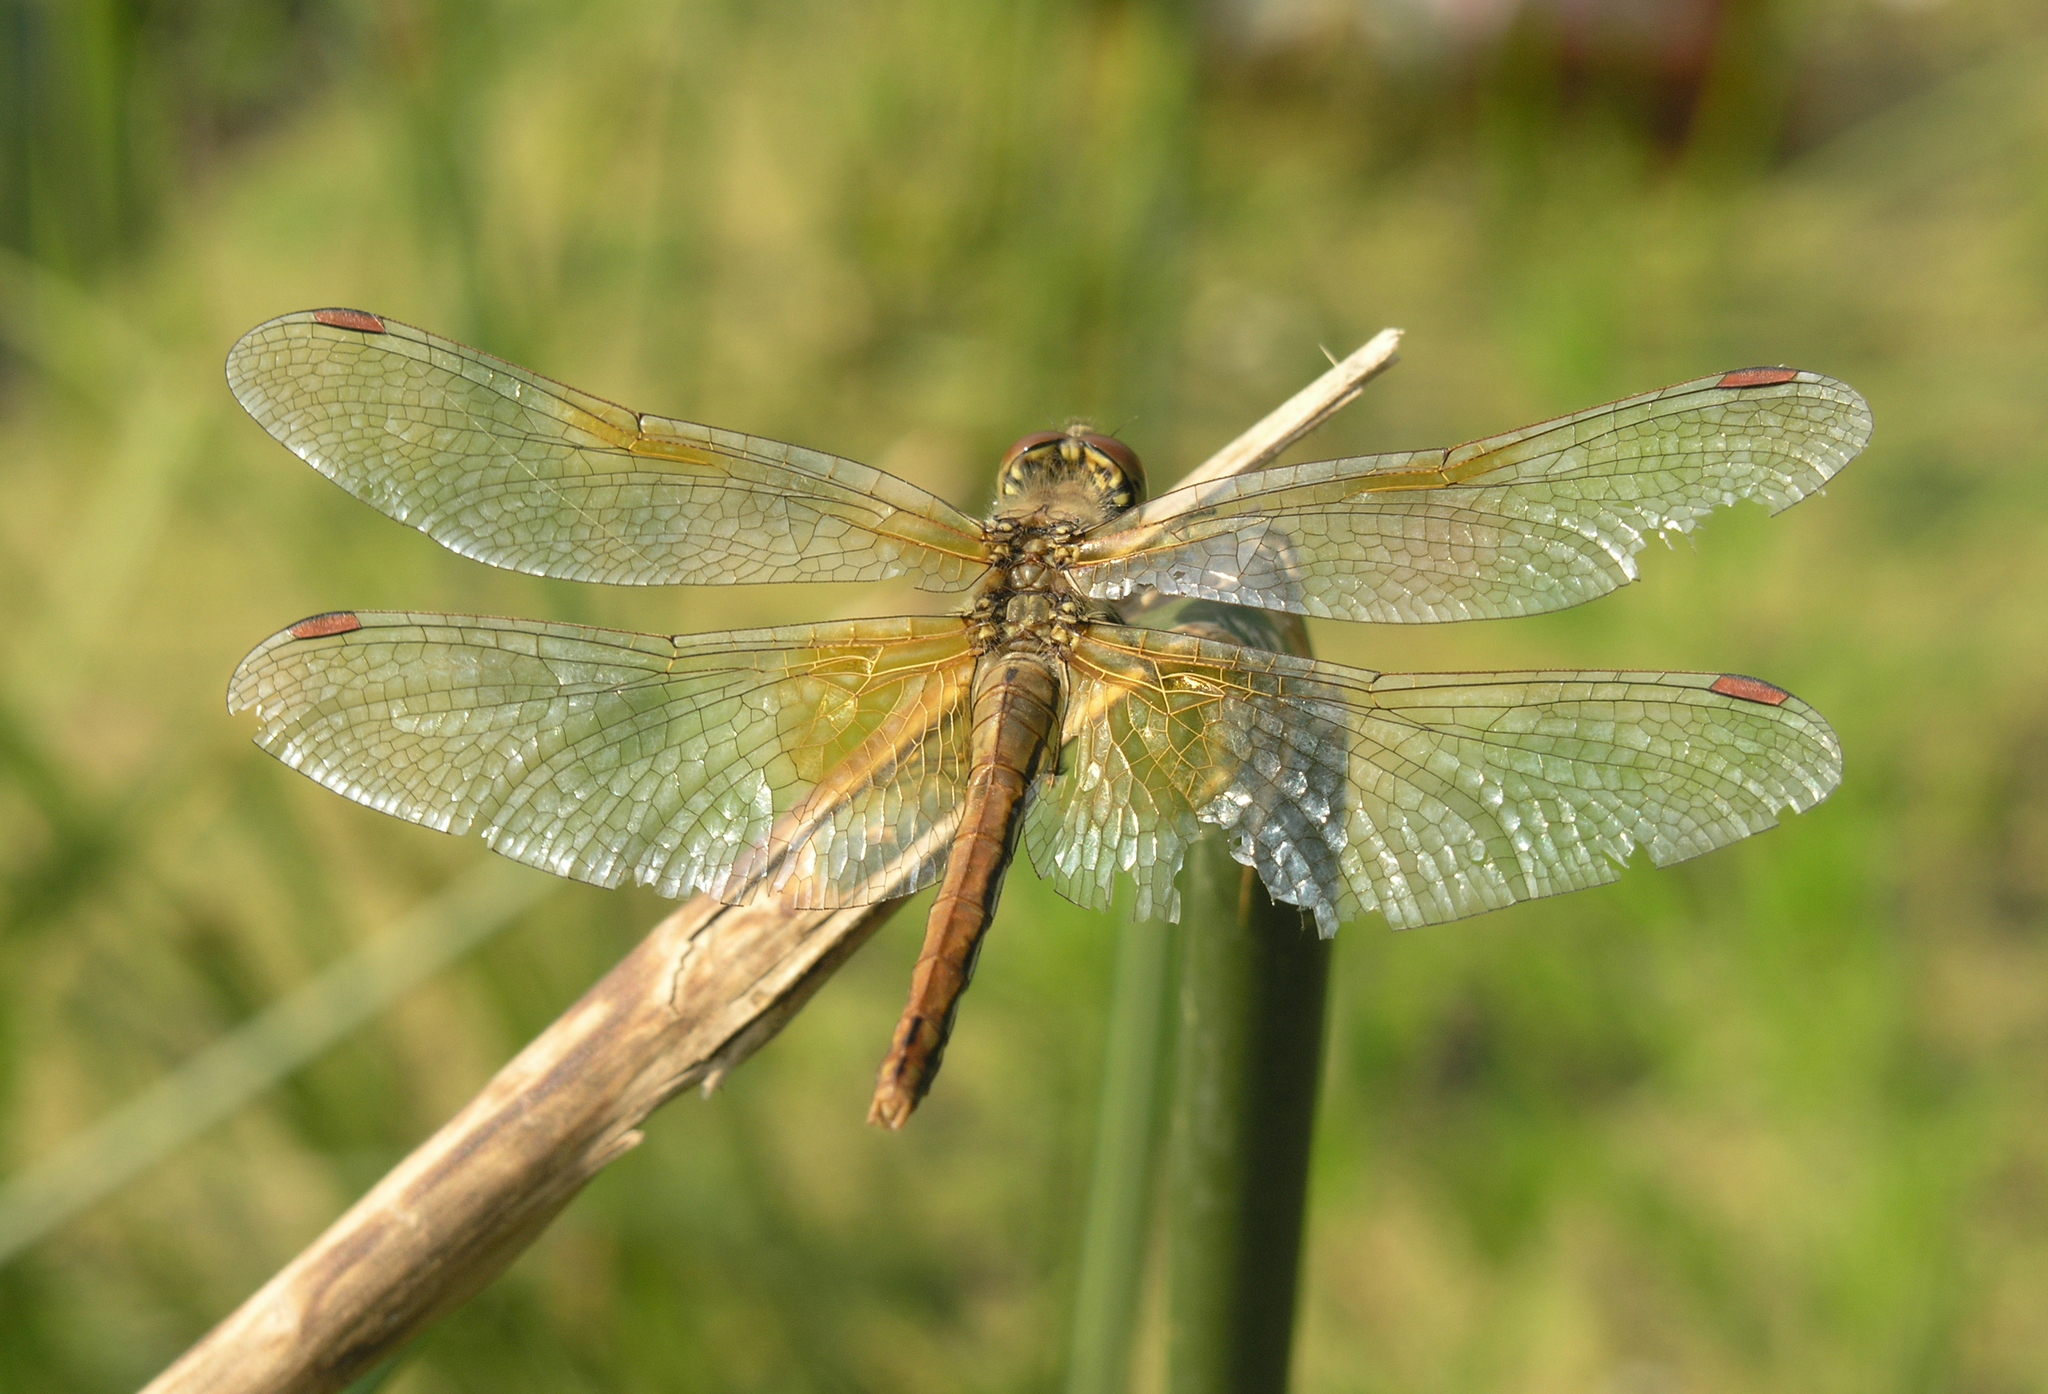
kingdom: Animalia
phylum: Arthropoda
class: Insecta
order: Odonata
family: Libellulidae
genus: Sympetrum
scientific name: Sympetrum flaveolum
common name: Yellow-winged darter
